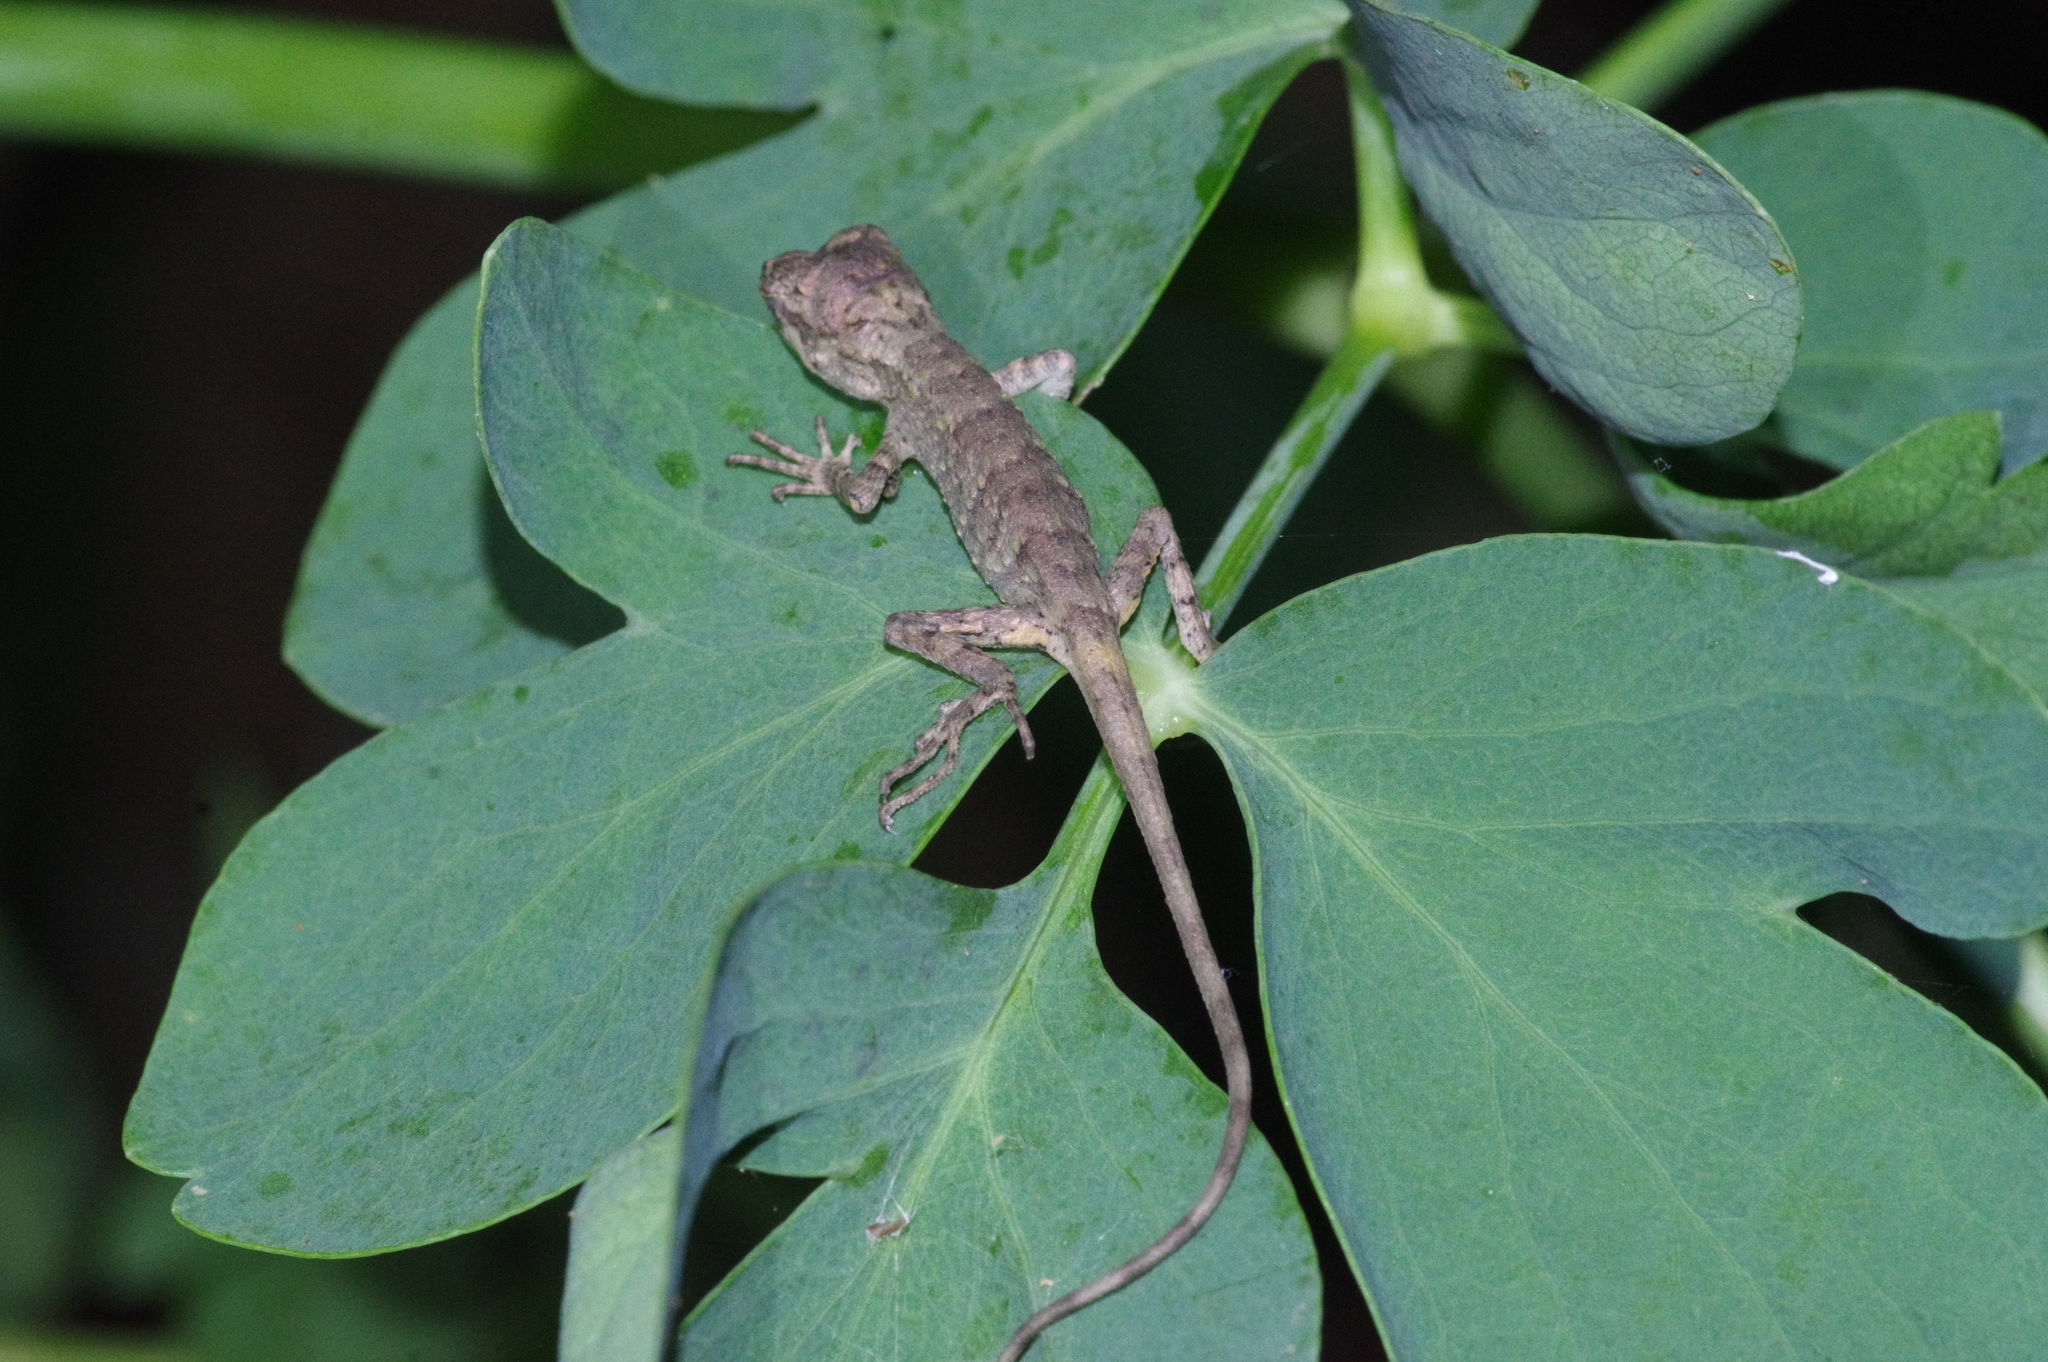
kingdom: Fungi
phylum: Basidiomycota
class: Agaricomycetes
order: Boletales
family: Diplocystidiaceae
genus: Diploderma
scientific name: Diploderma polygonatum
